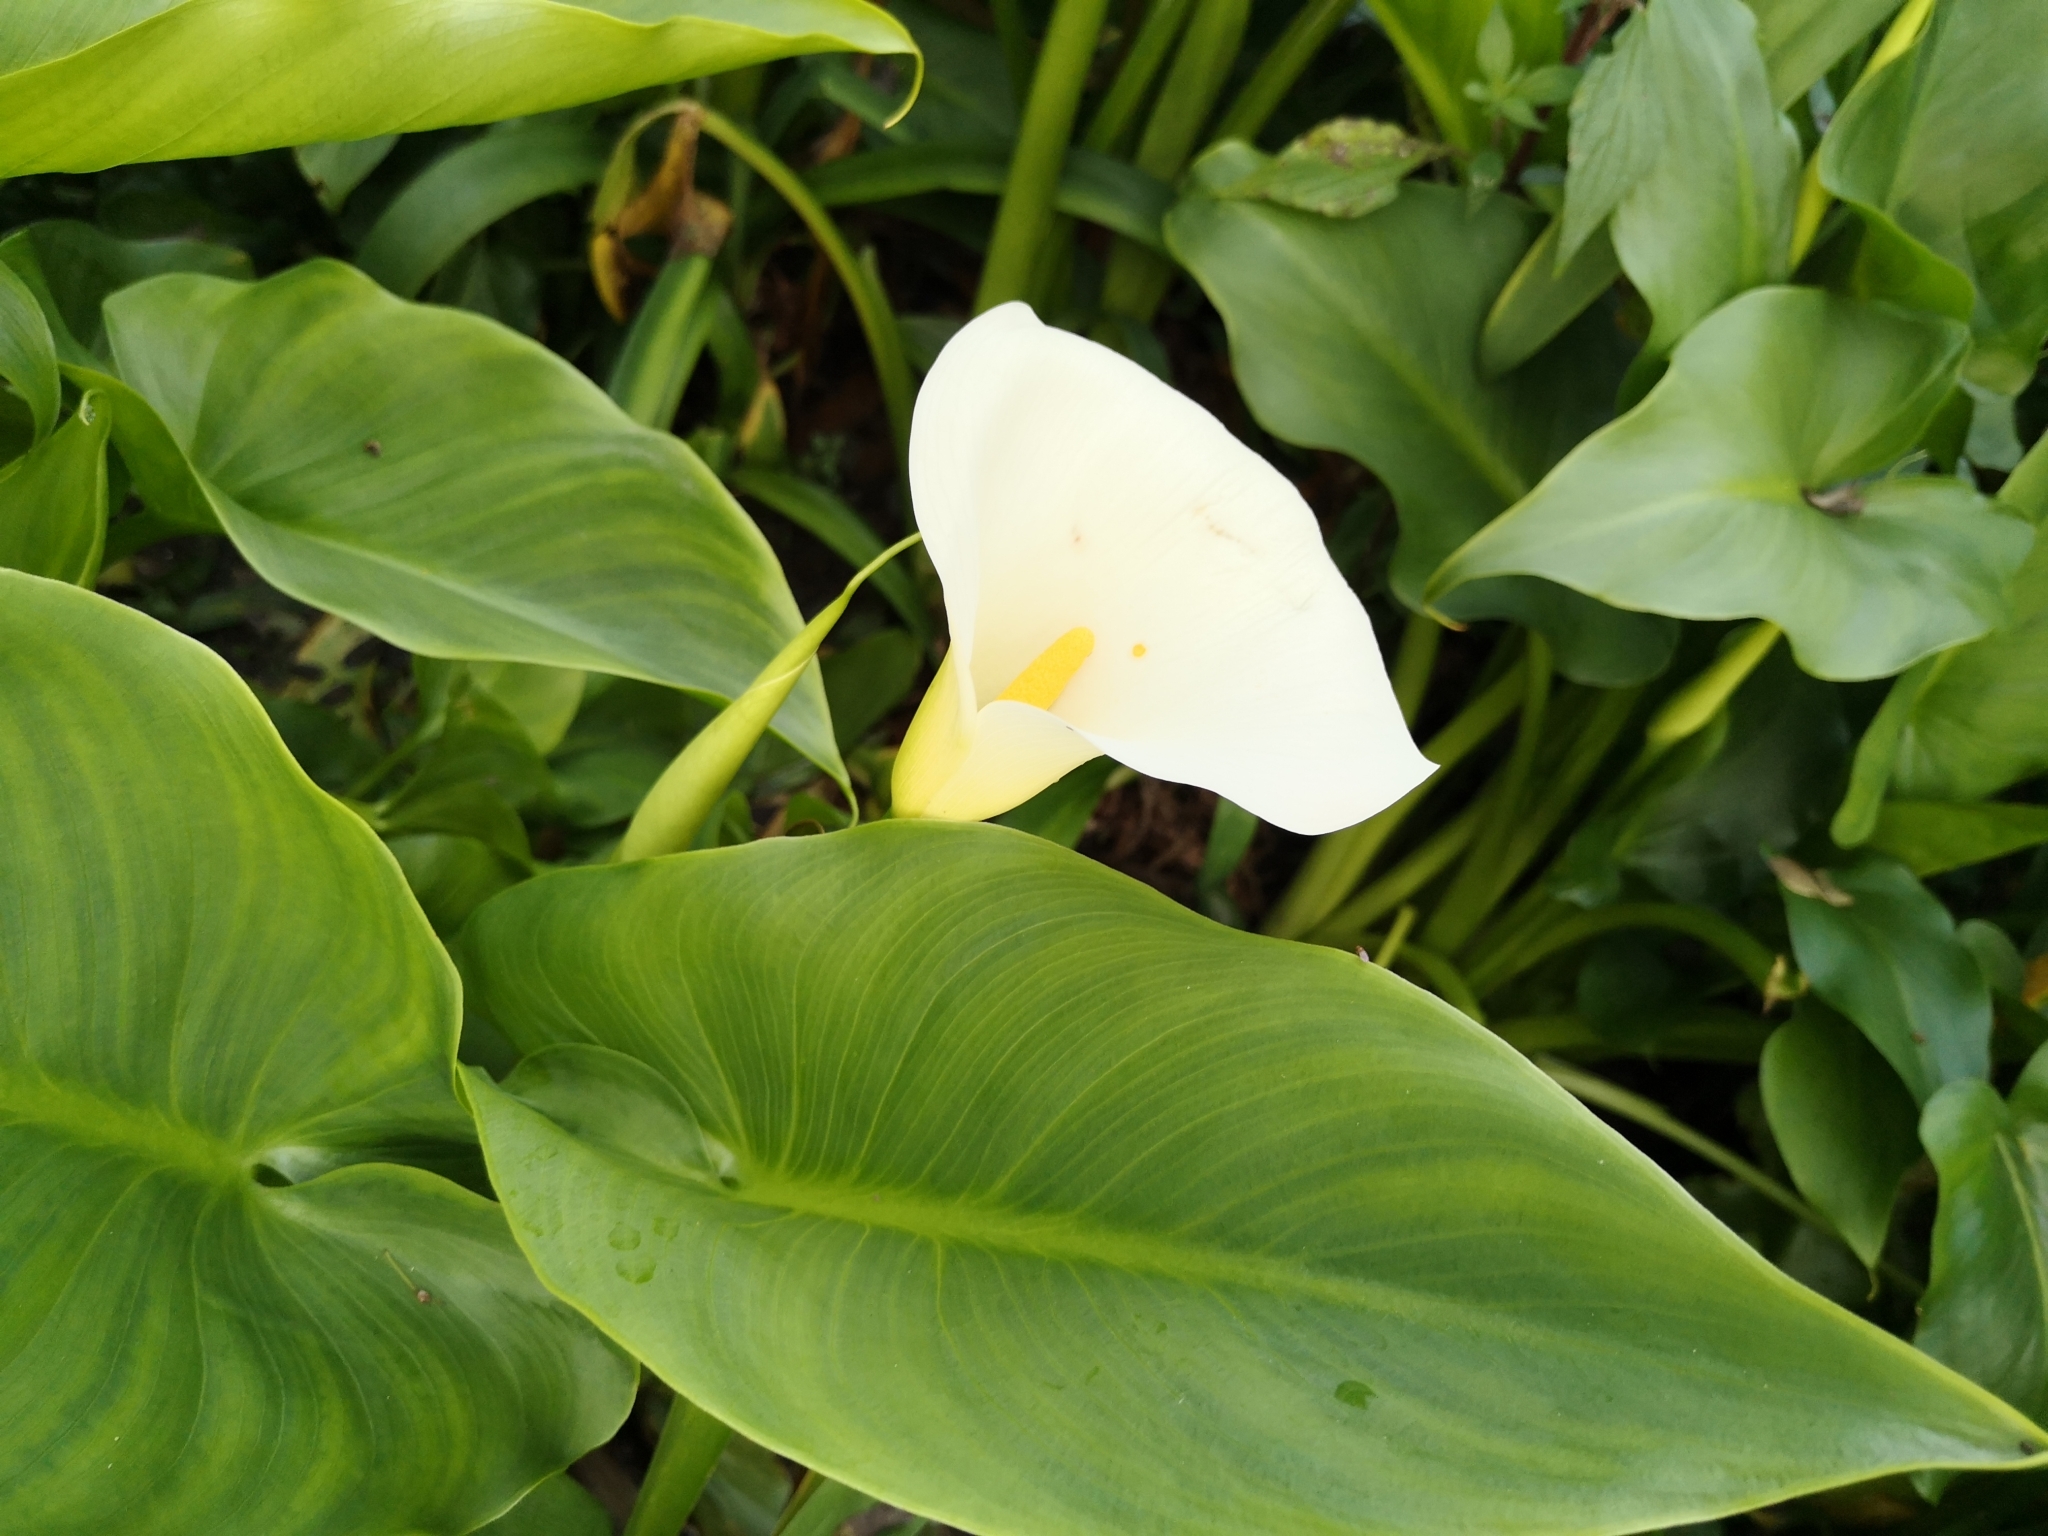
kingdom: Plantae
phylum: Tracheophyta
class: Liliopsida
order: Alismatales
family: Araceae
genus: Zantedeschia
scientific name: Zantedeschia aethiopica
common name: Altar-lily
